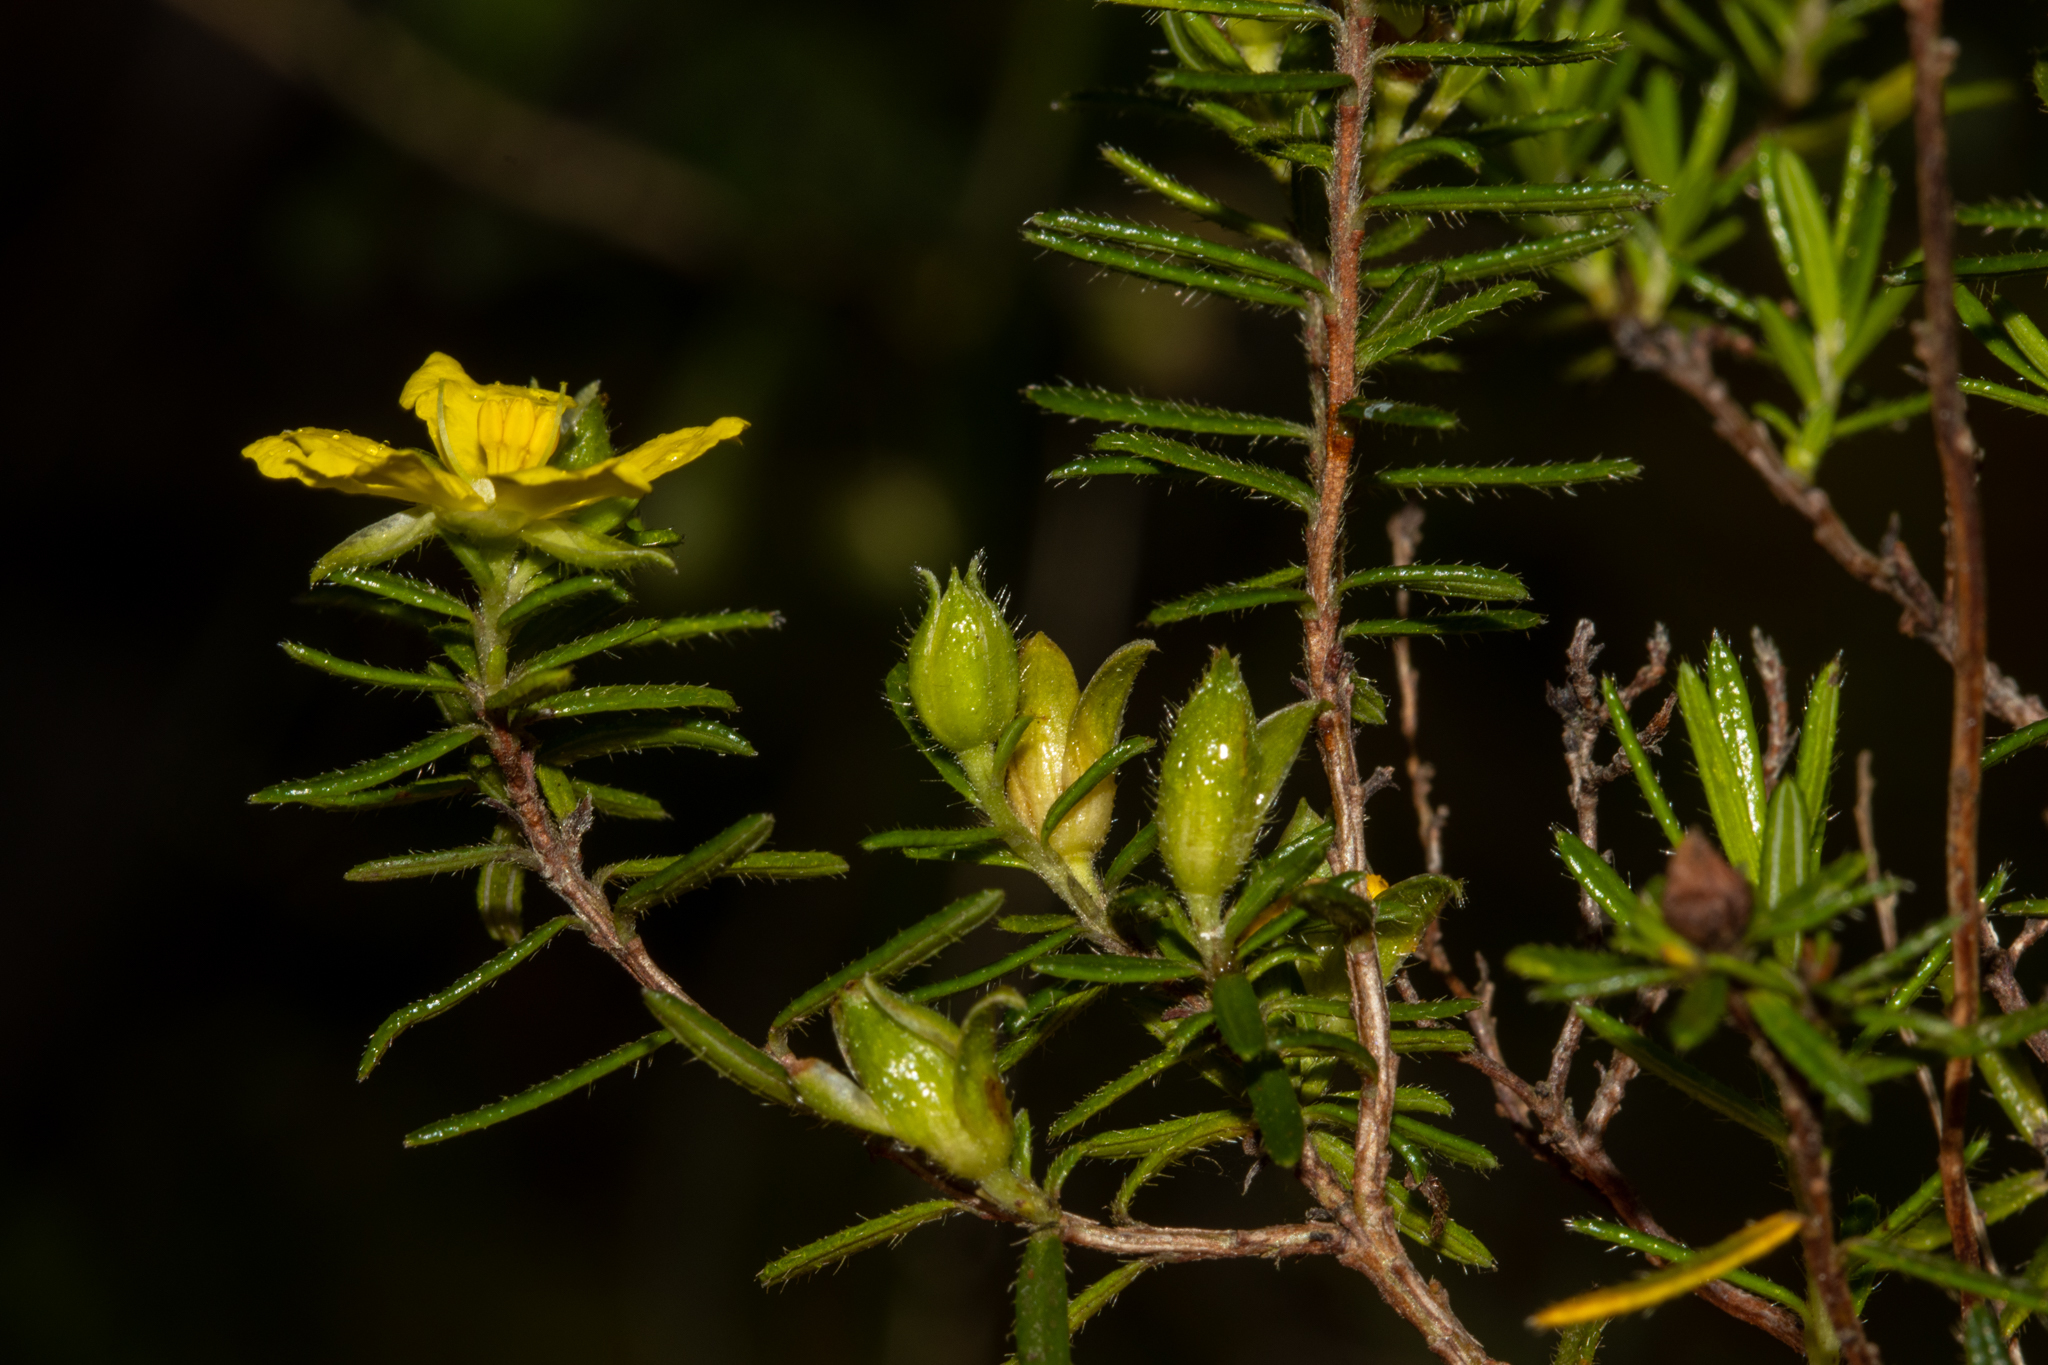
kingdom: Plantae
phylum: Tracheophyta
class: Magnoliopsida
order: Dilleniales
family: Dilleniaceae
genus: Hibbertia
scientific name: Hibbertia riparia
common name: Erect guinea-flower
